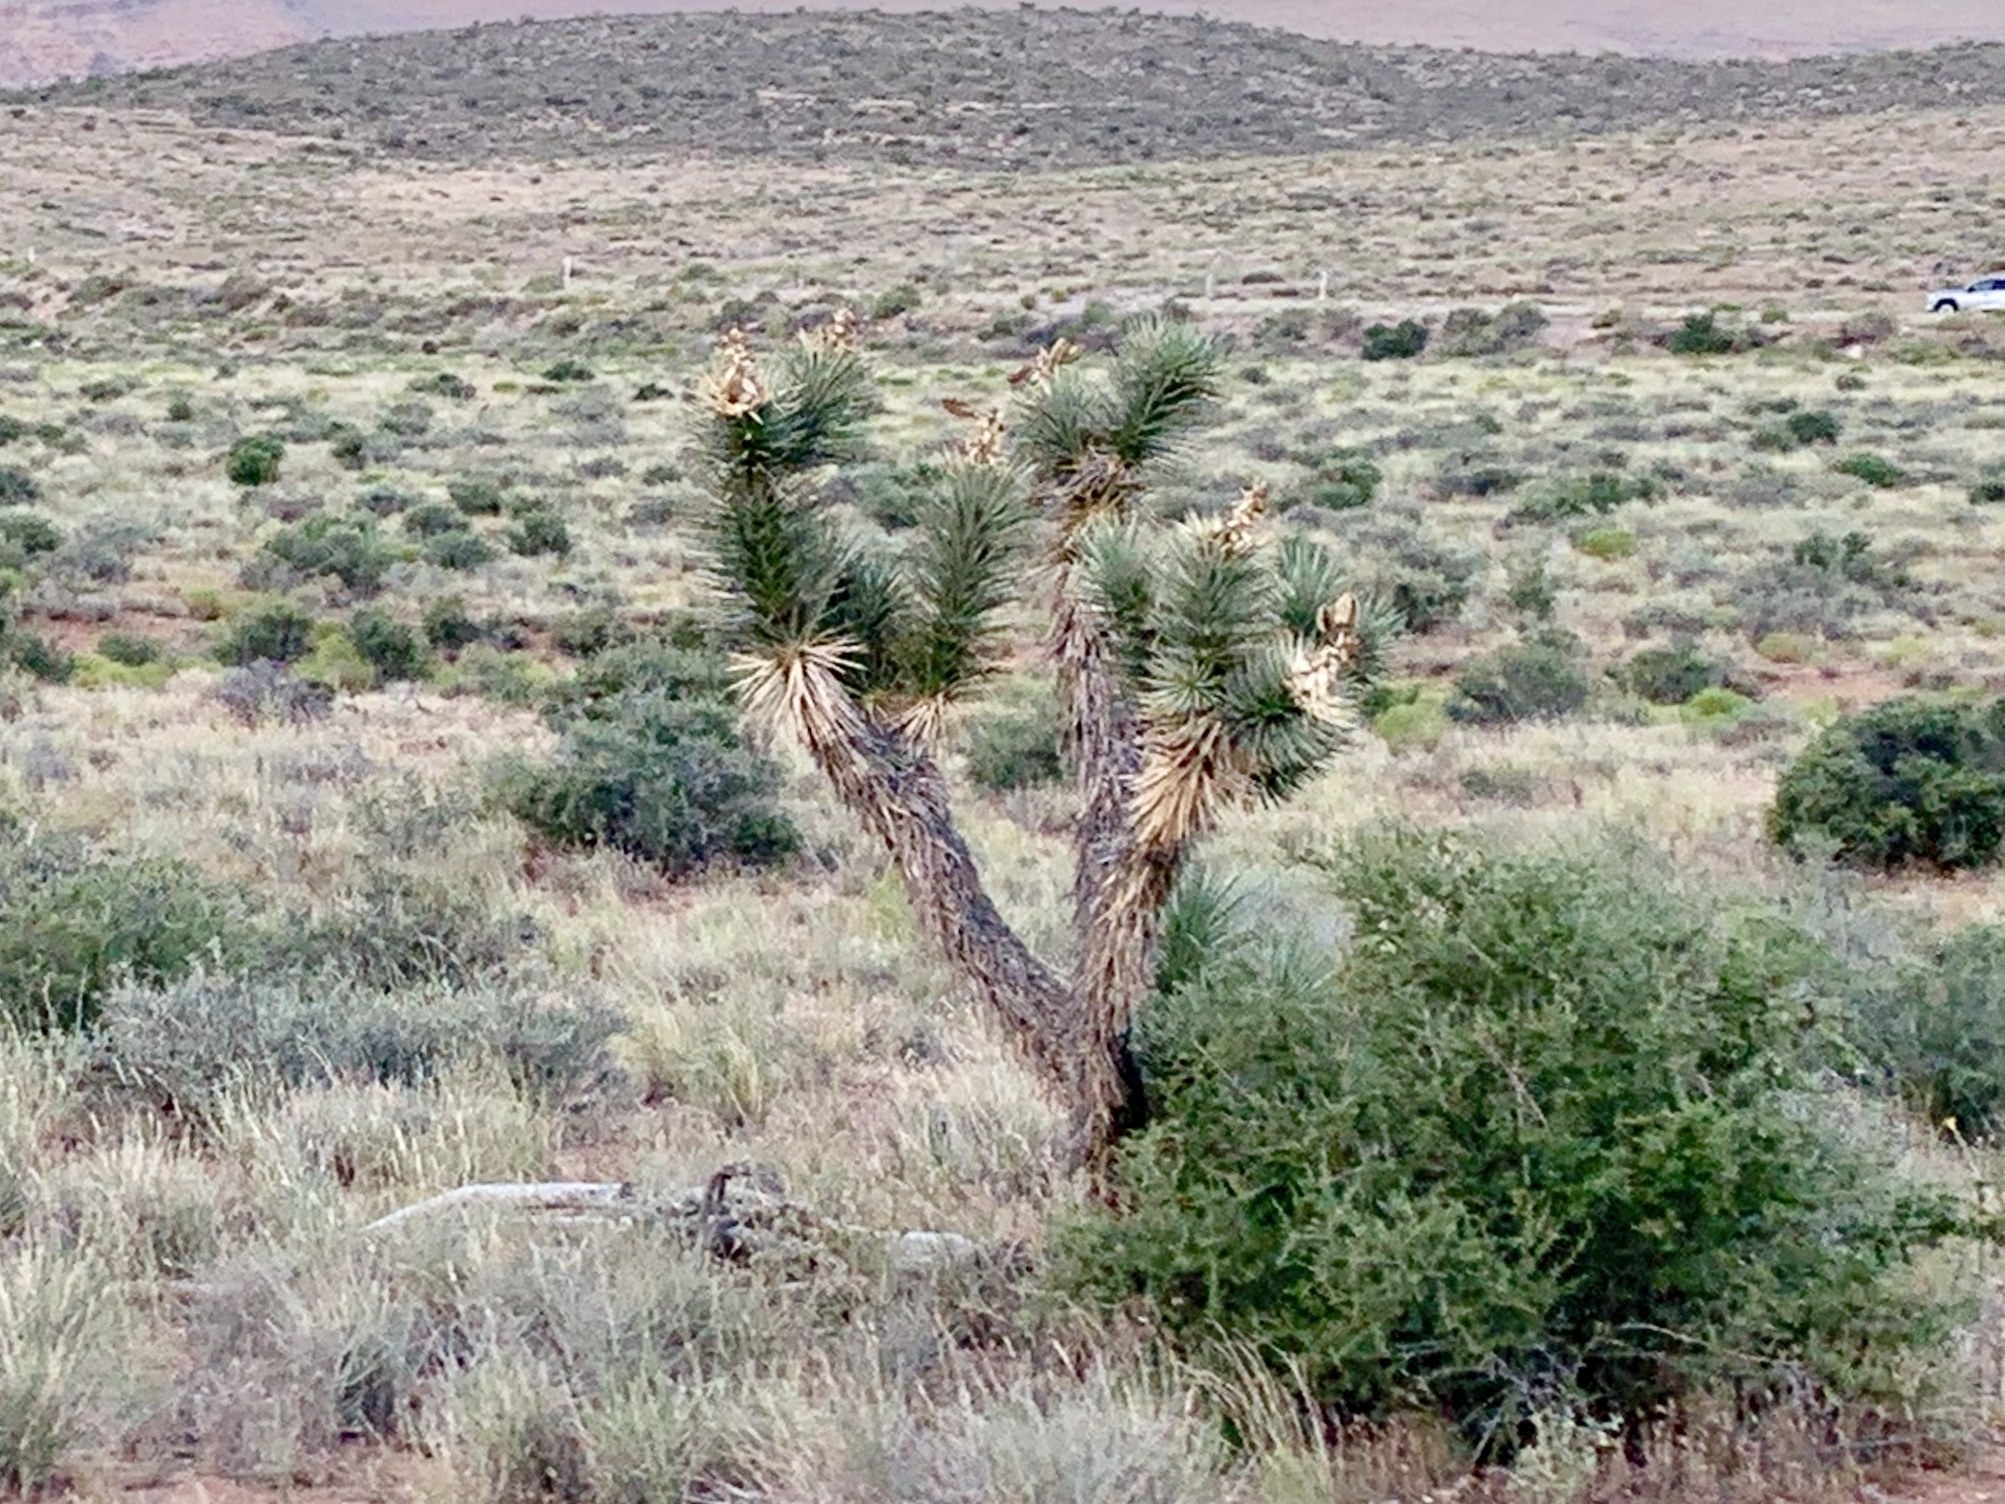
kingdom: Plantae
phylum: Tracheophyta
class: Liliopsida
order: Asparagales
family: Asparagaceae
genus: Yucca
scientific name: Yucca brevifolia
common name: Joshua tree
